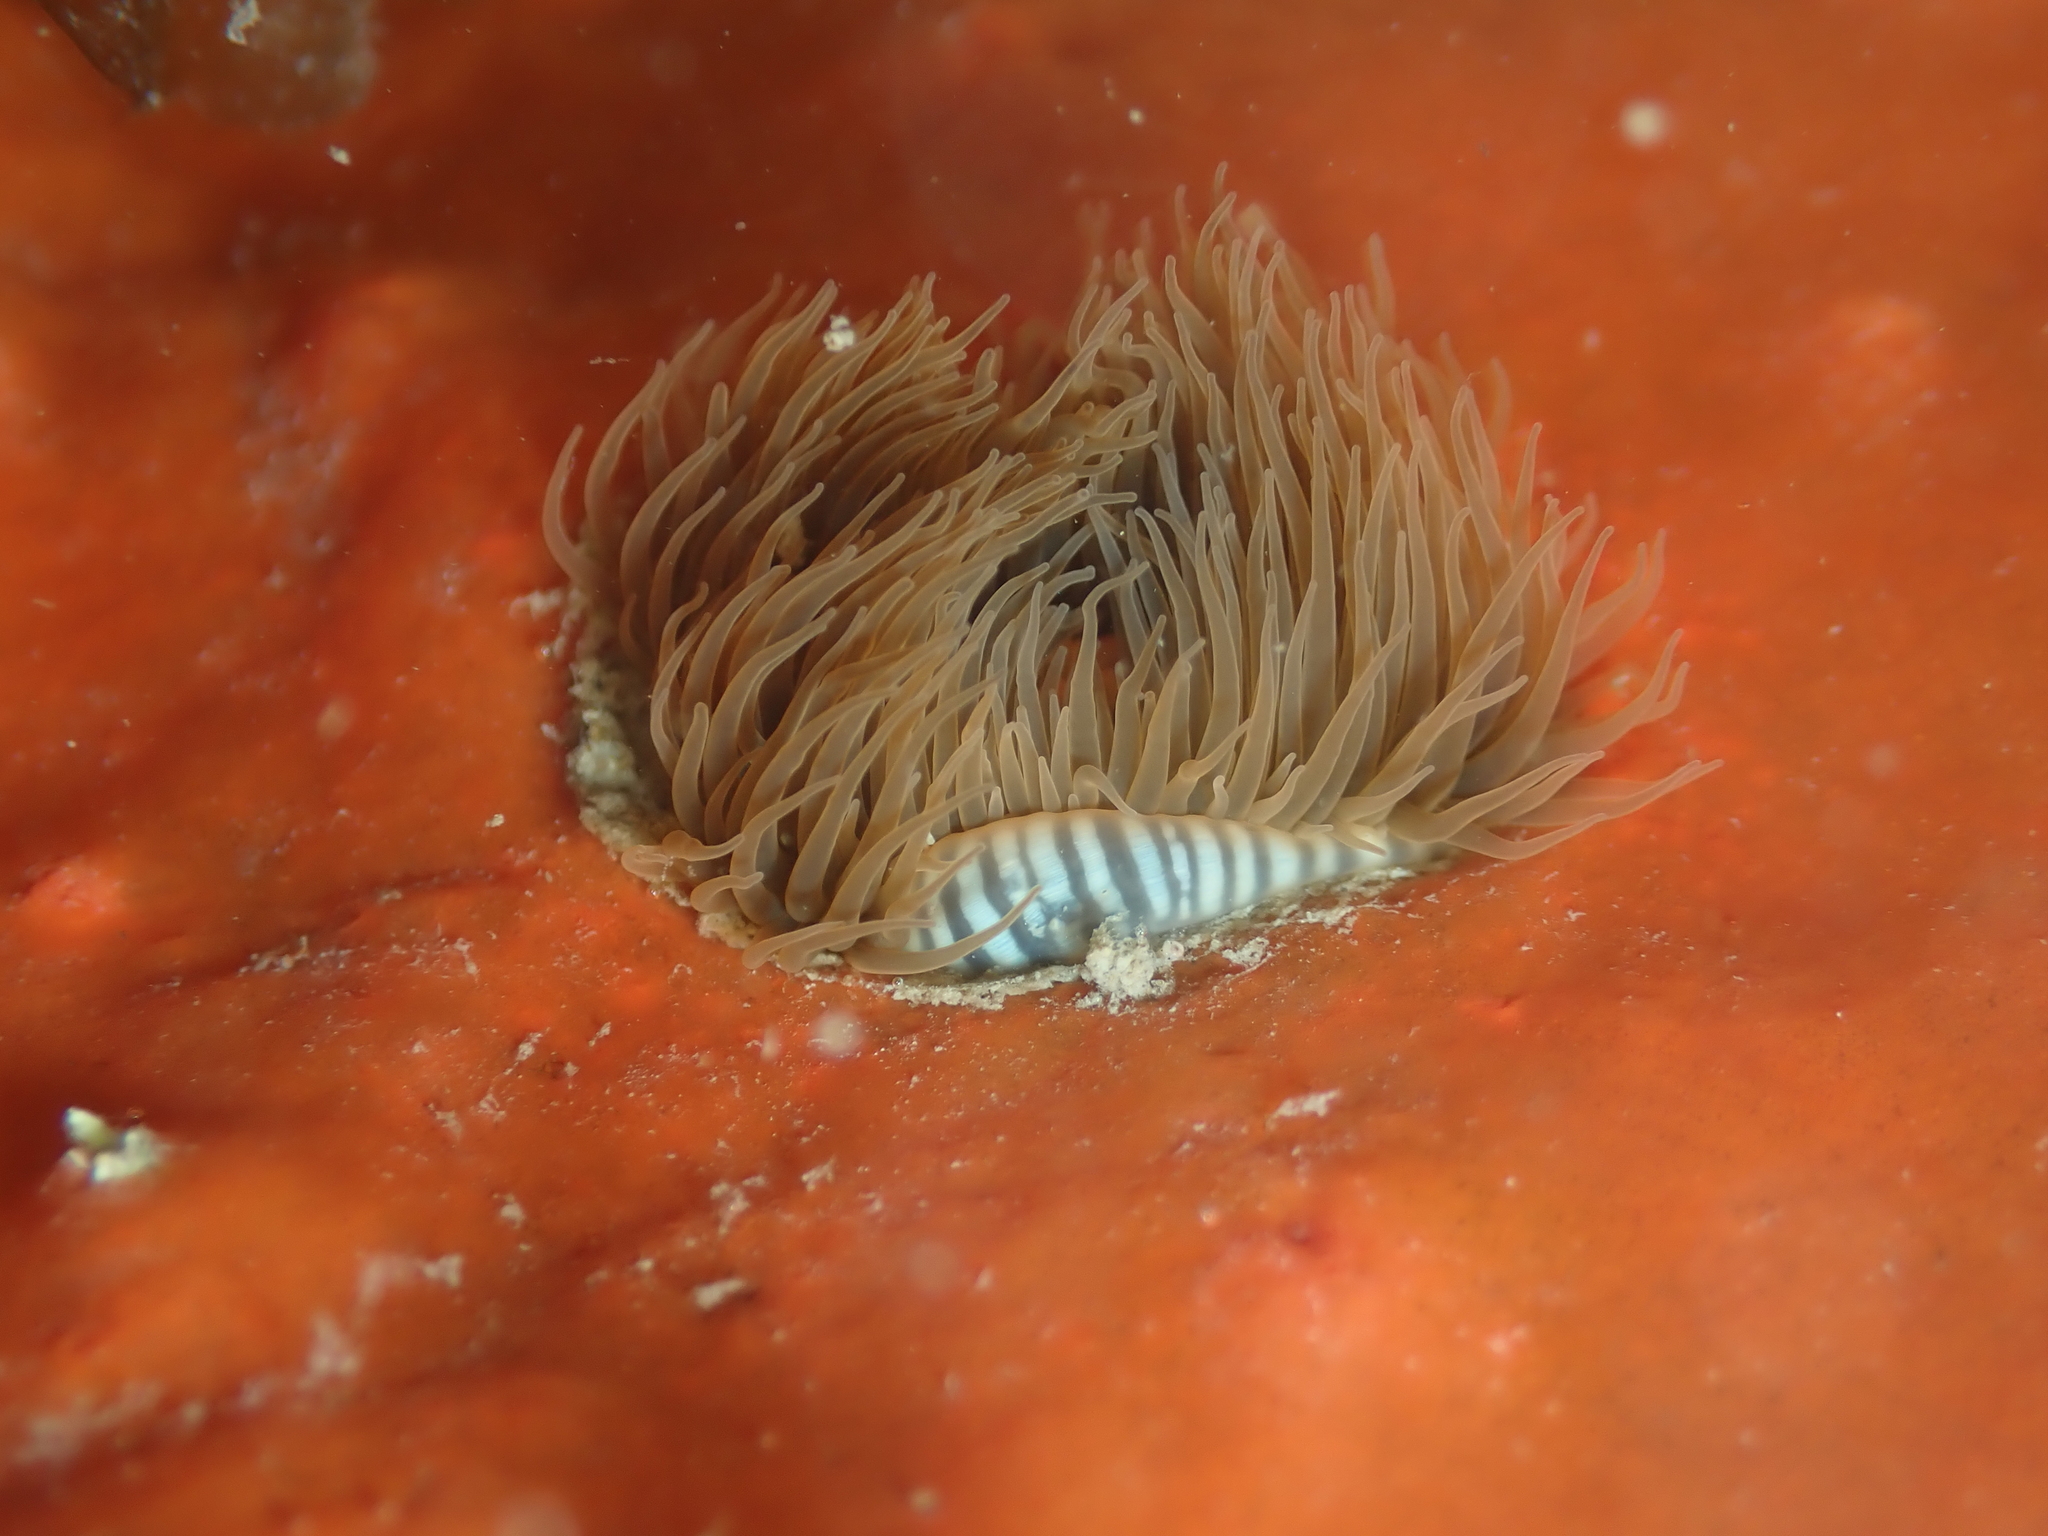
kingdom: Animalia
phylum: Cnidaria
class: Anthozoa
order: Actiniaria
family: Diadumenidae
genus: Diadumene
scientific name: Diadumene neozelanica
